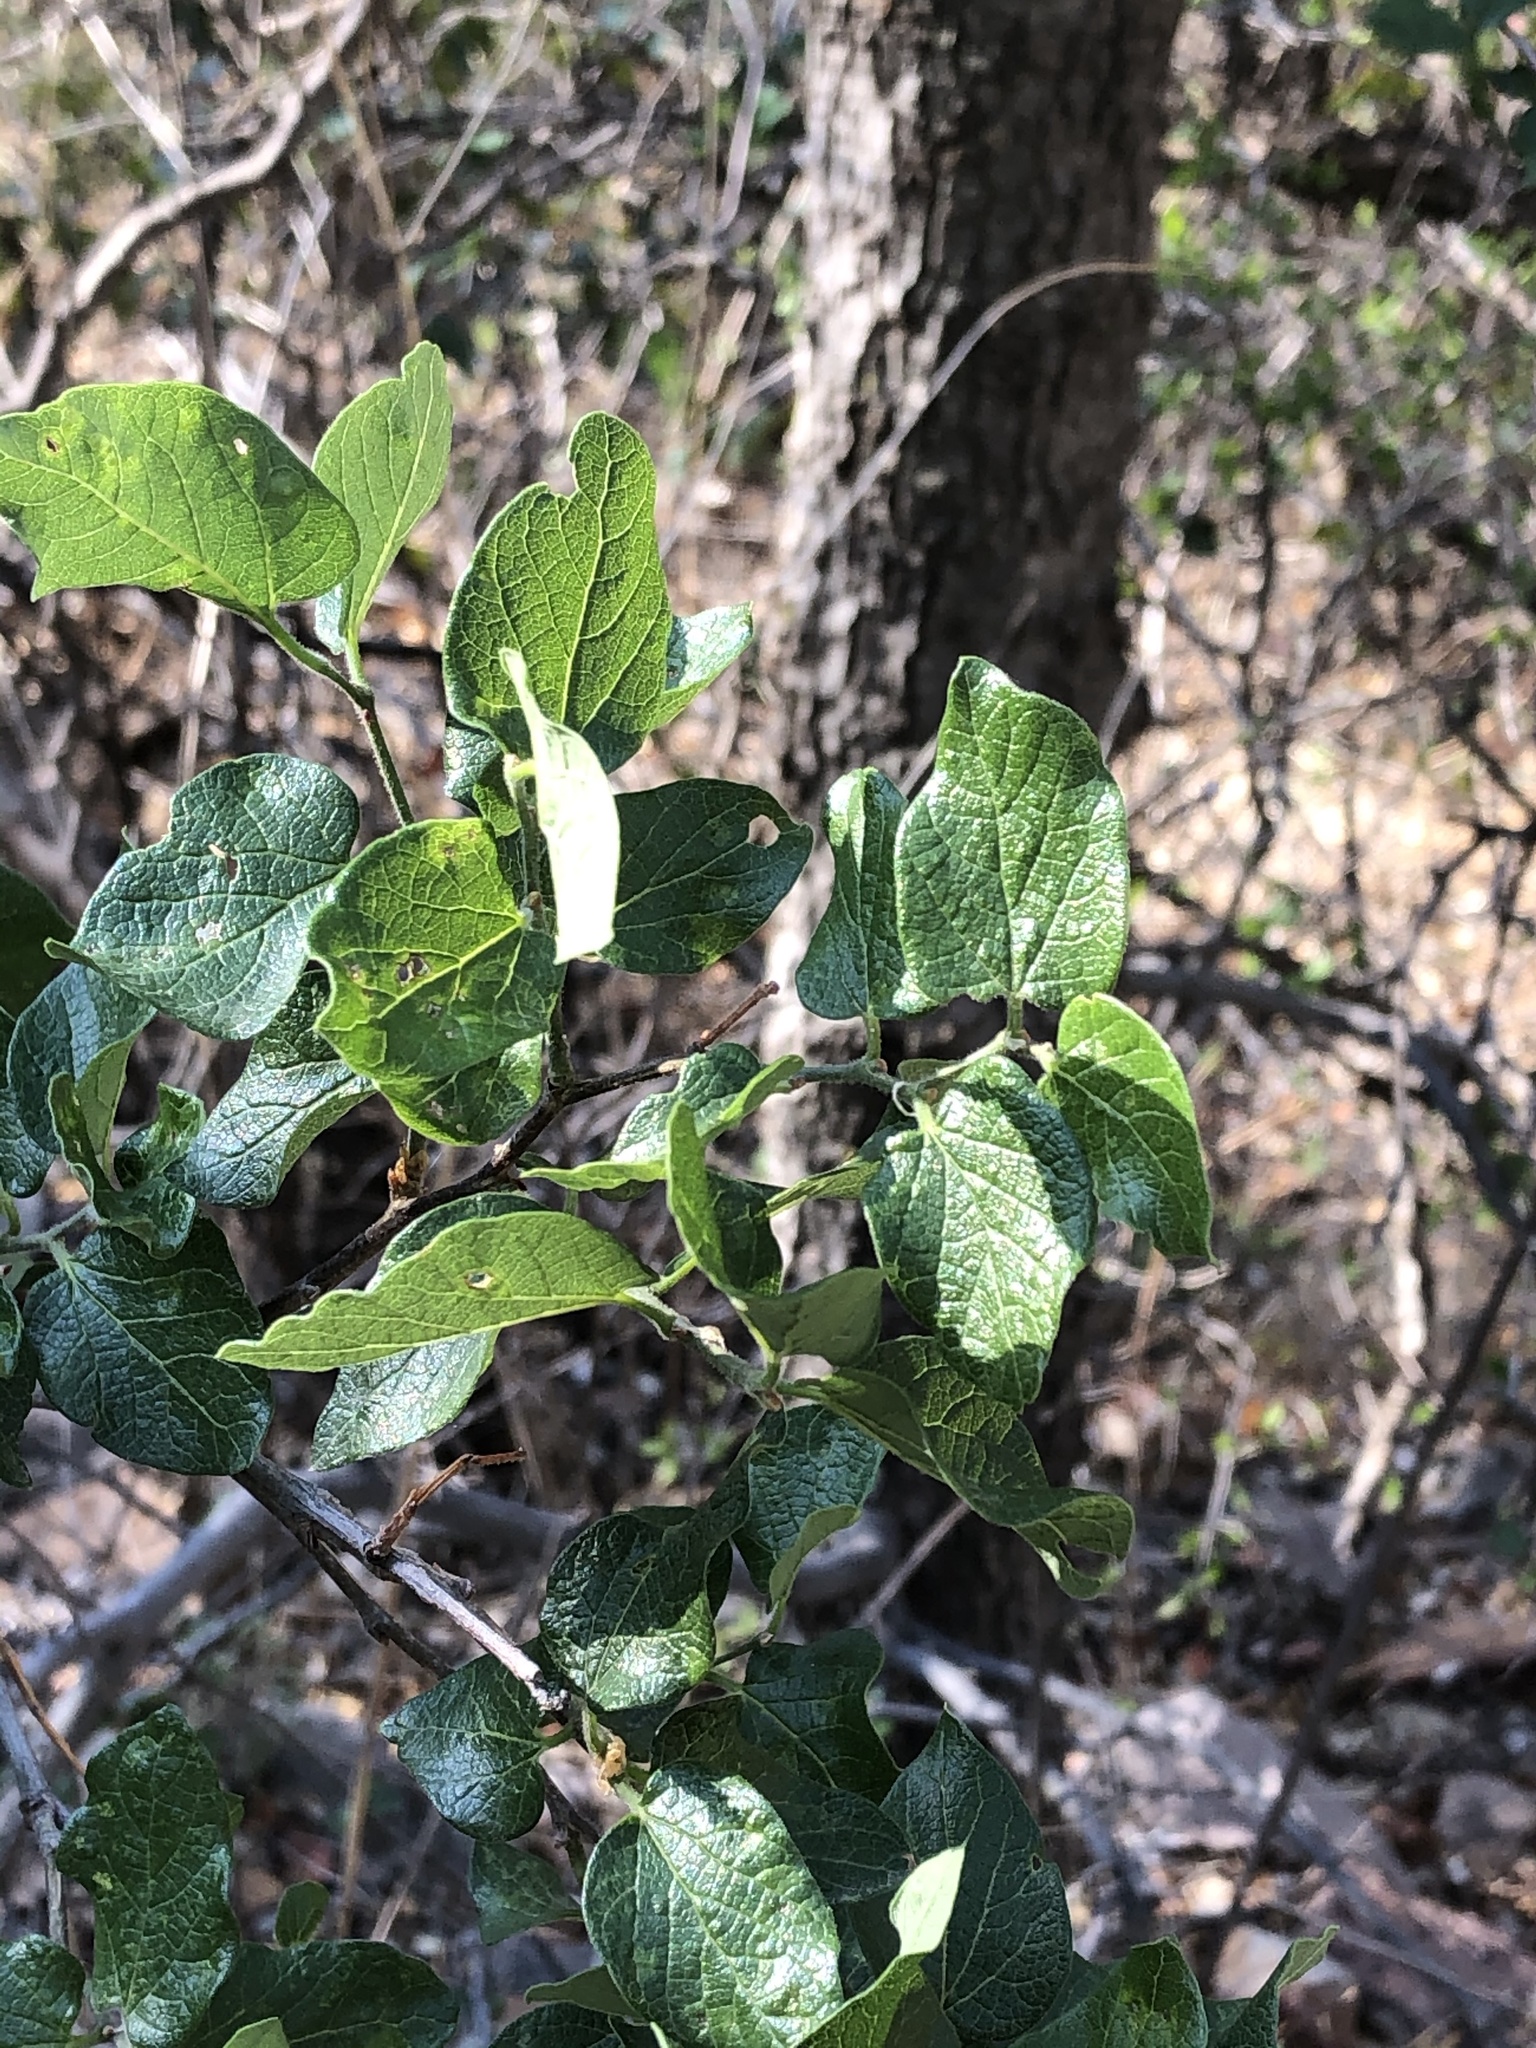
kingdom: Plantae
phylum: Tracheophyta
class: Magnoliopsida
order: Rosales
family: Cannabaceae
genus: Celtis
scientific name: Celtis reticulata
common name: Netleaf hackberry
